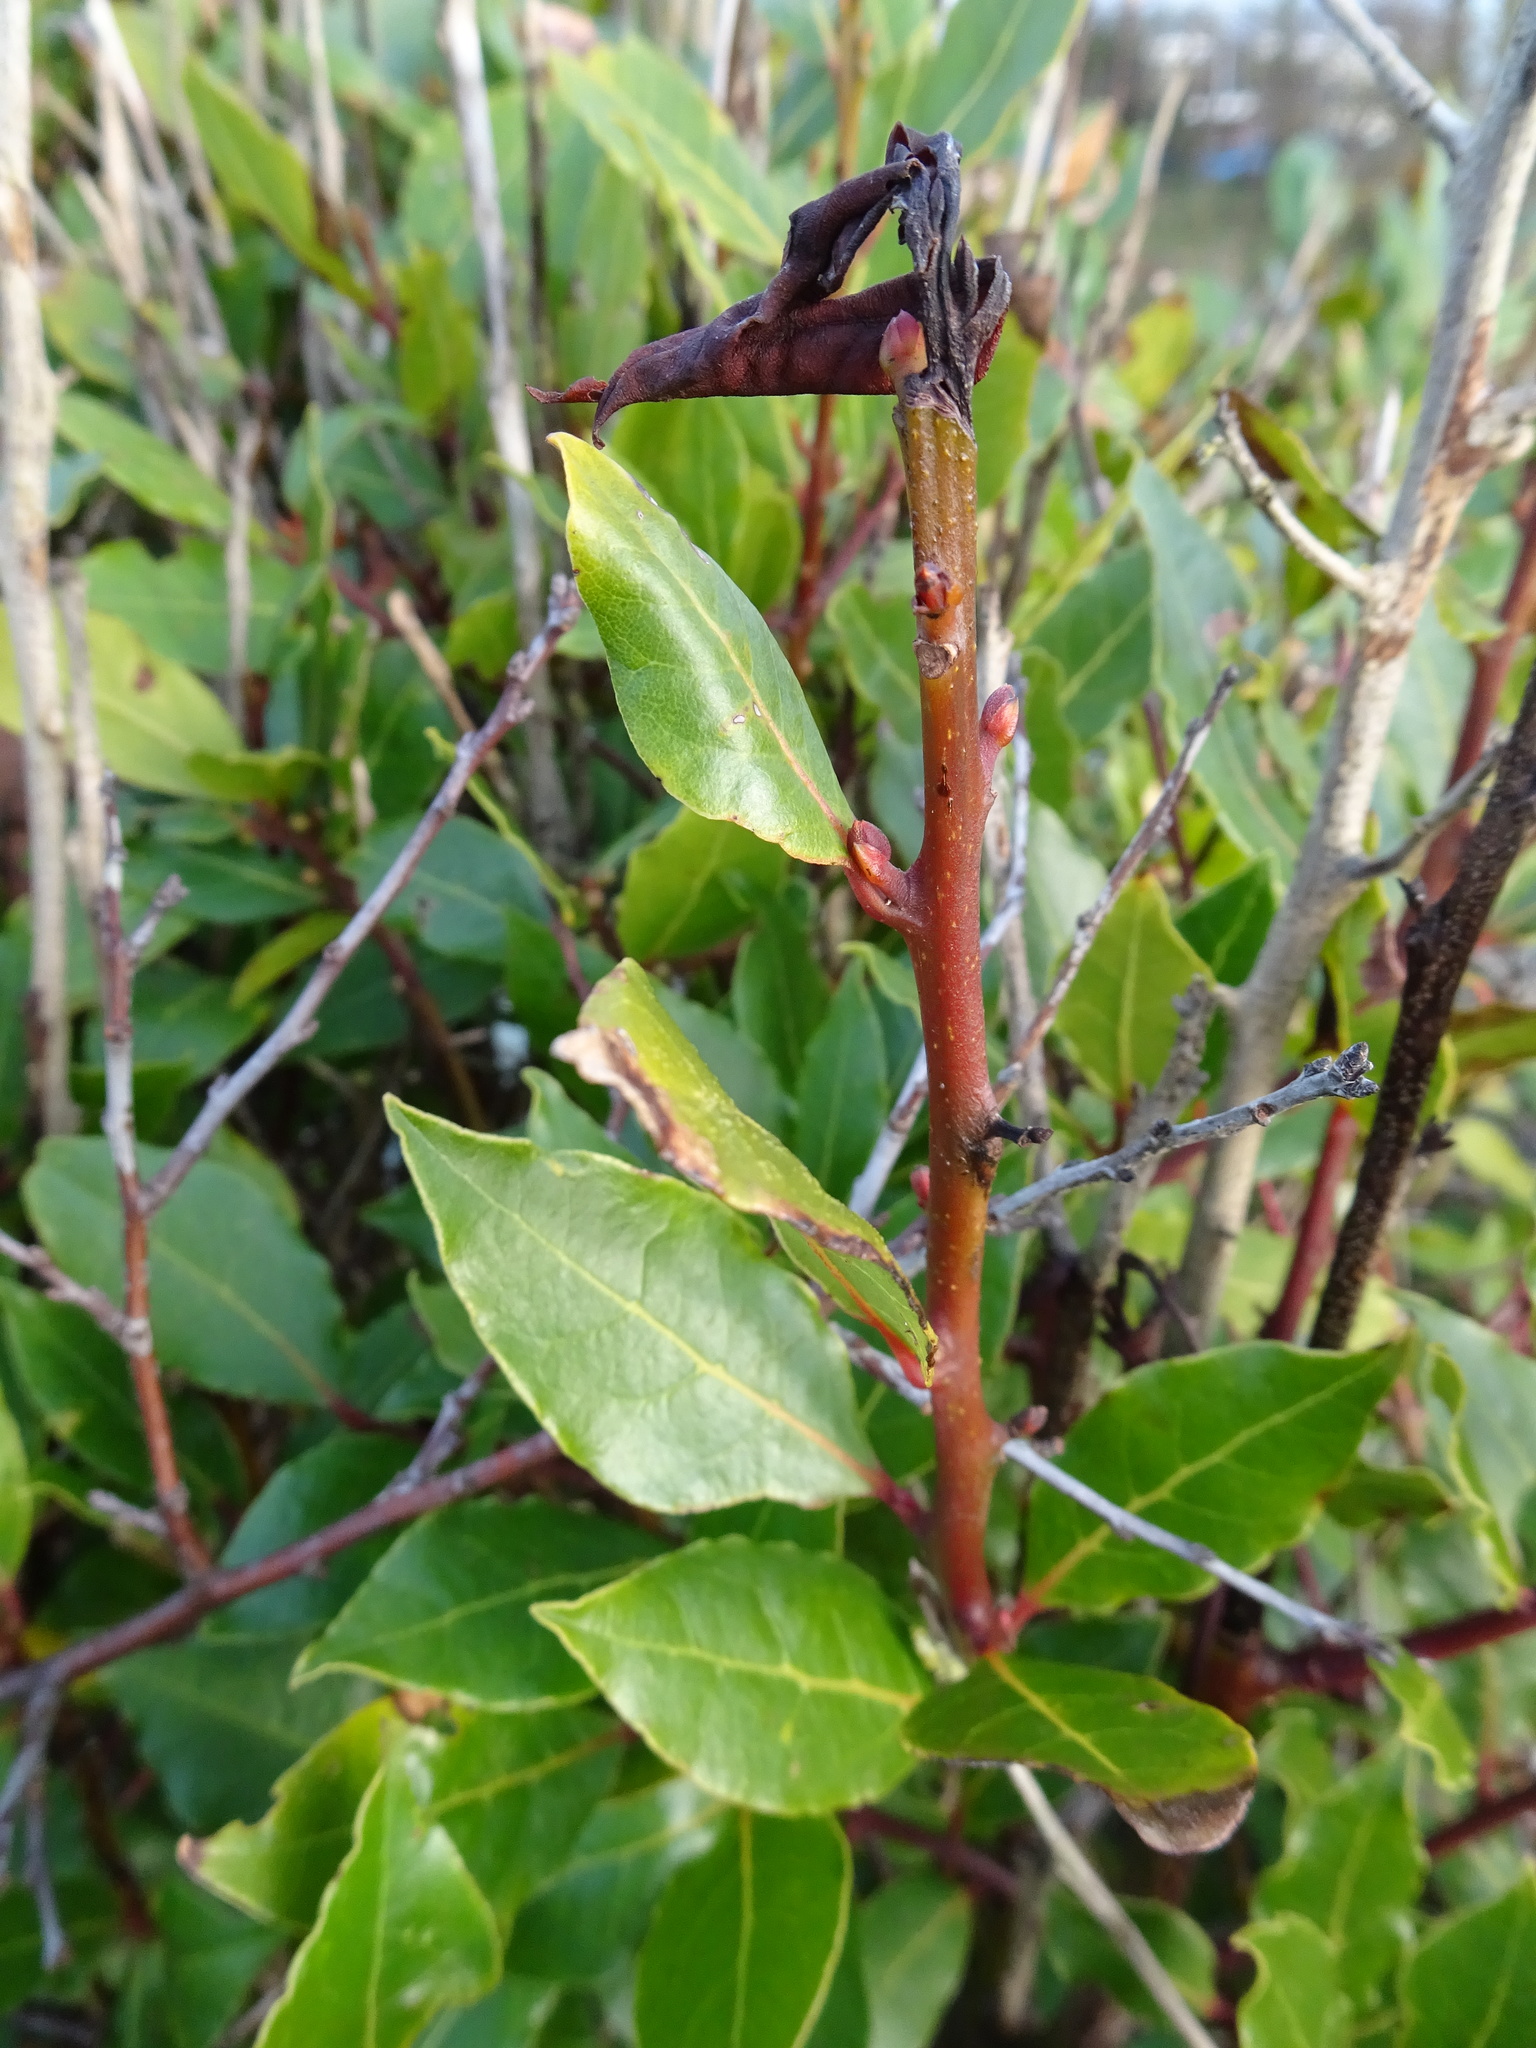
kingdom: Plantae
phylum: Tracheophyta
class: Magnoliopsida
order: Laurales
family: Lauraceae
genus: Laurus
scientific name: Laurus nobilis
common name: Bay
